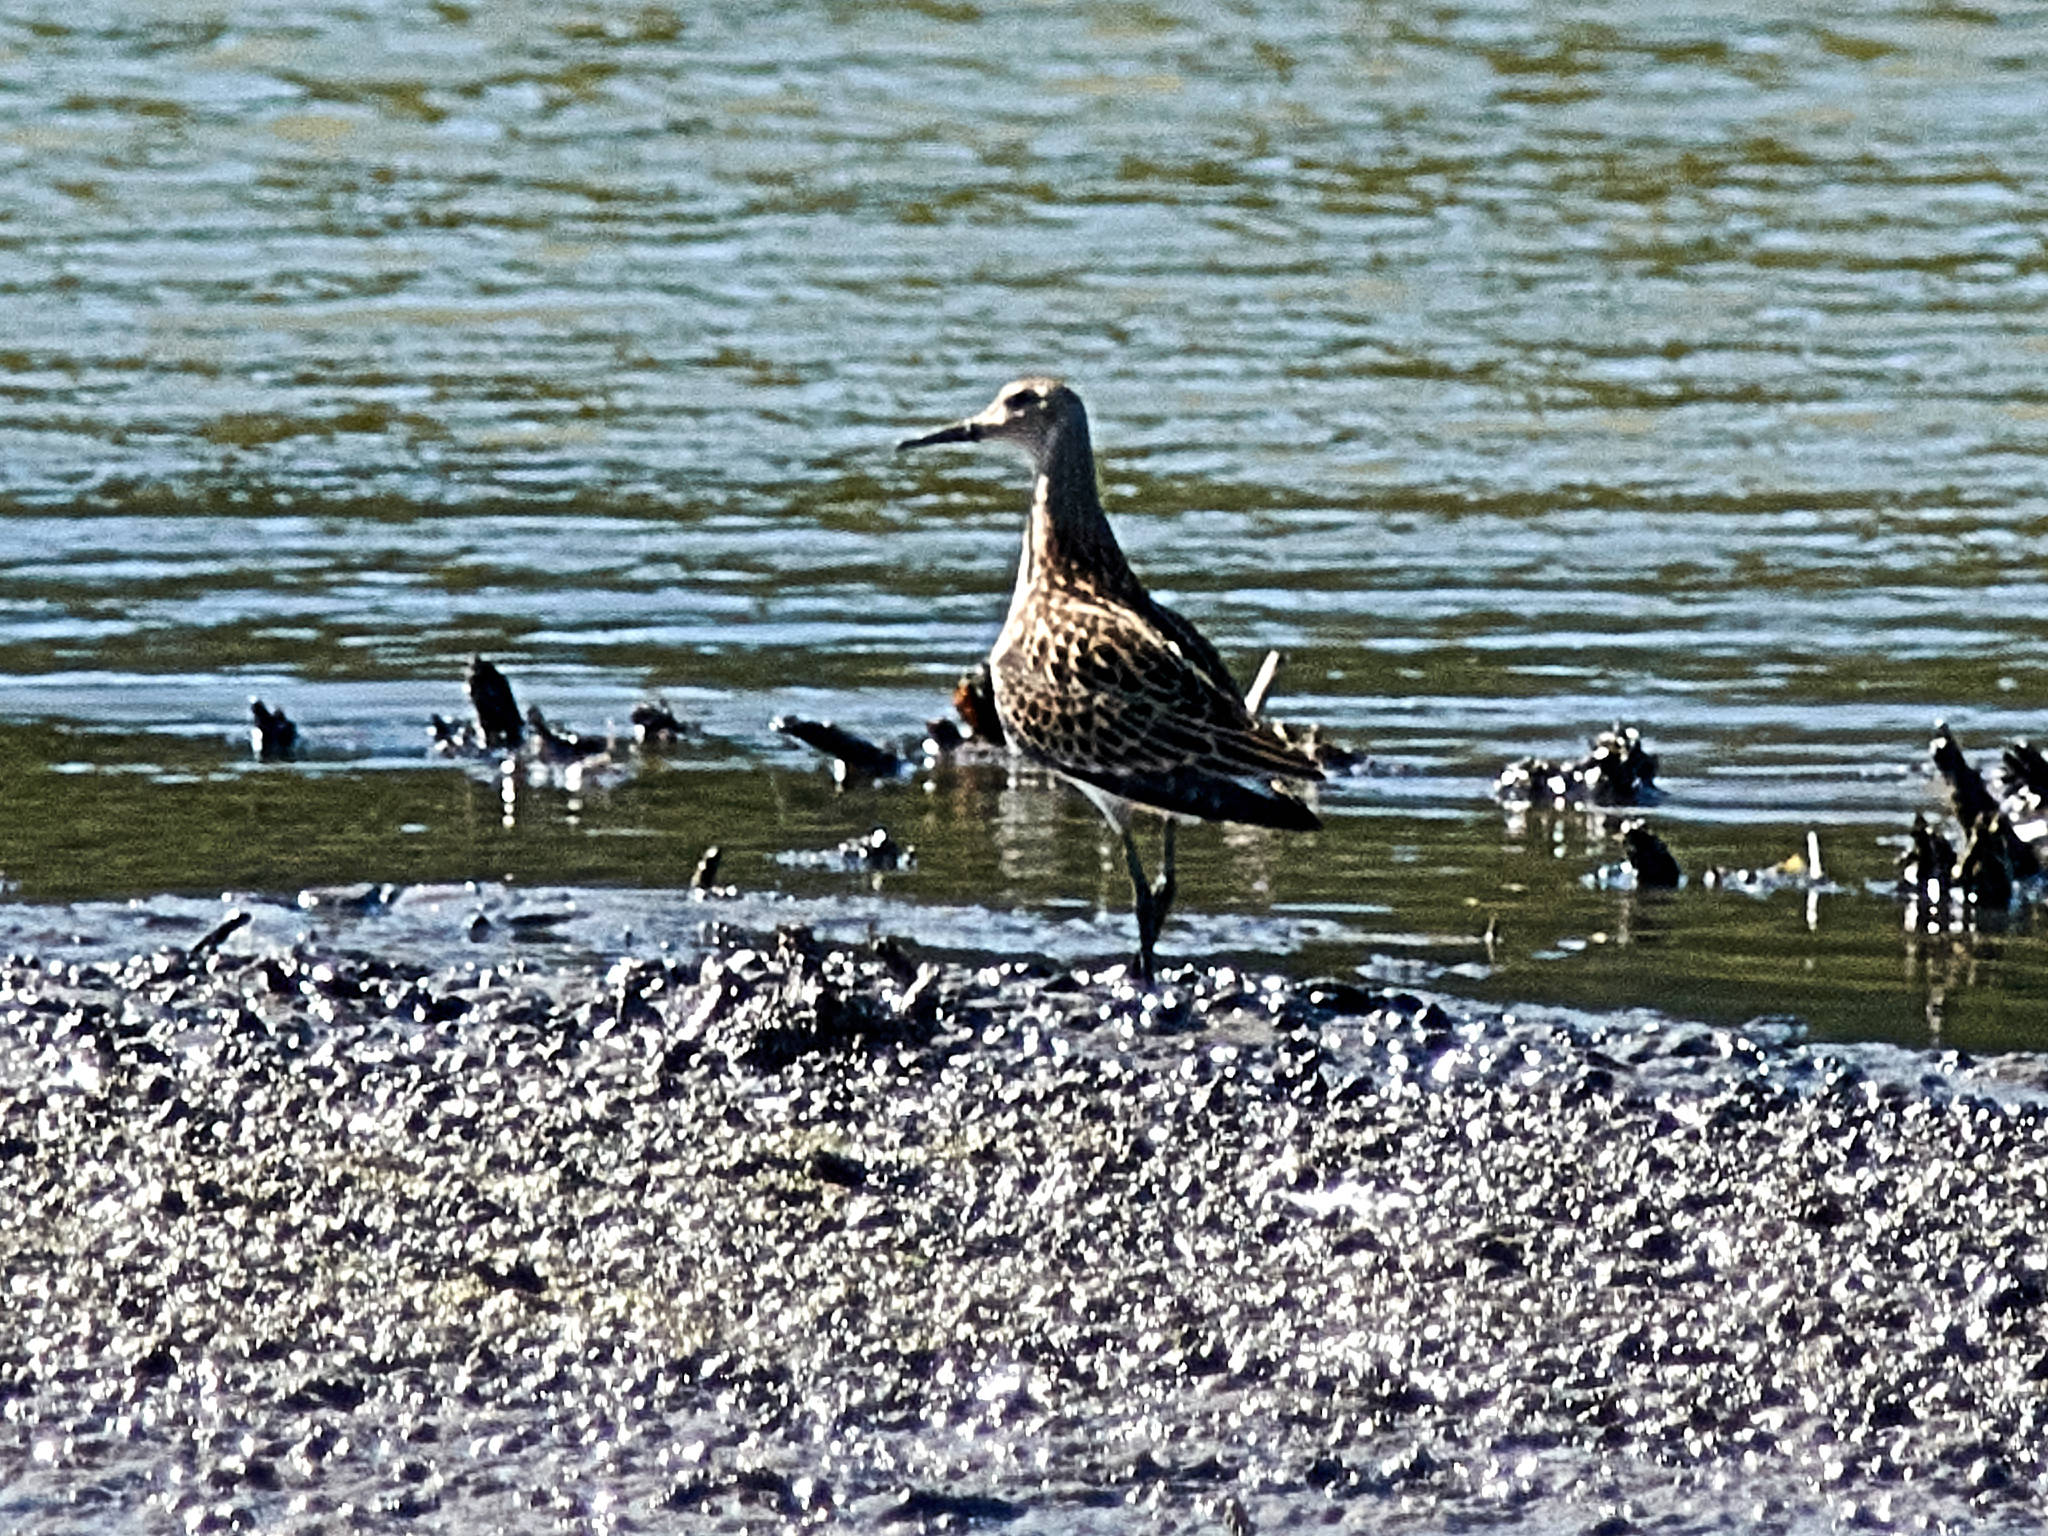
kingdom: Animalia
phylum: Chordata
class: Aves
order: Charadriiformes
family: Scolopacidae
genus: Calidris
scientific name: Calidris pugnax
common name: Ruff
